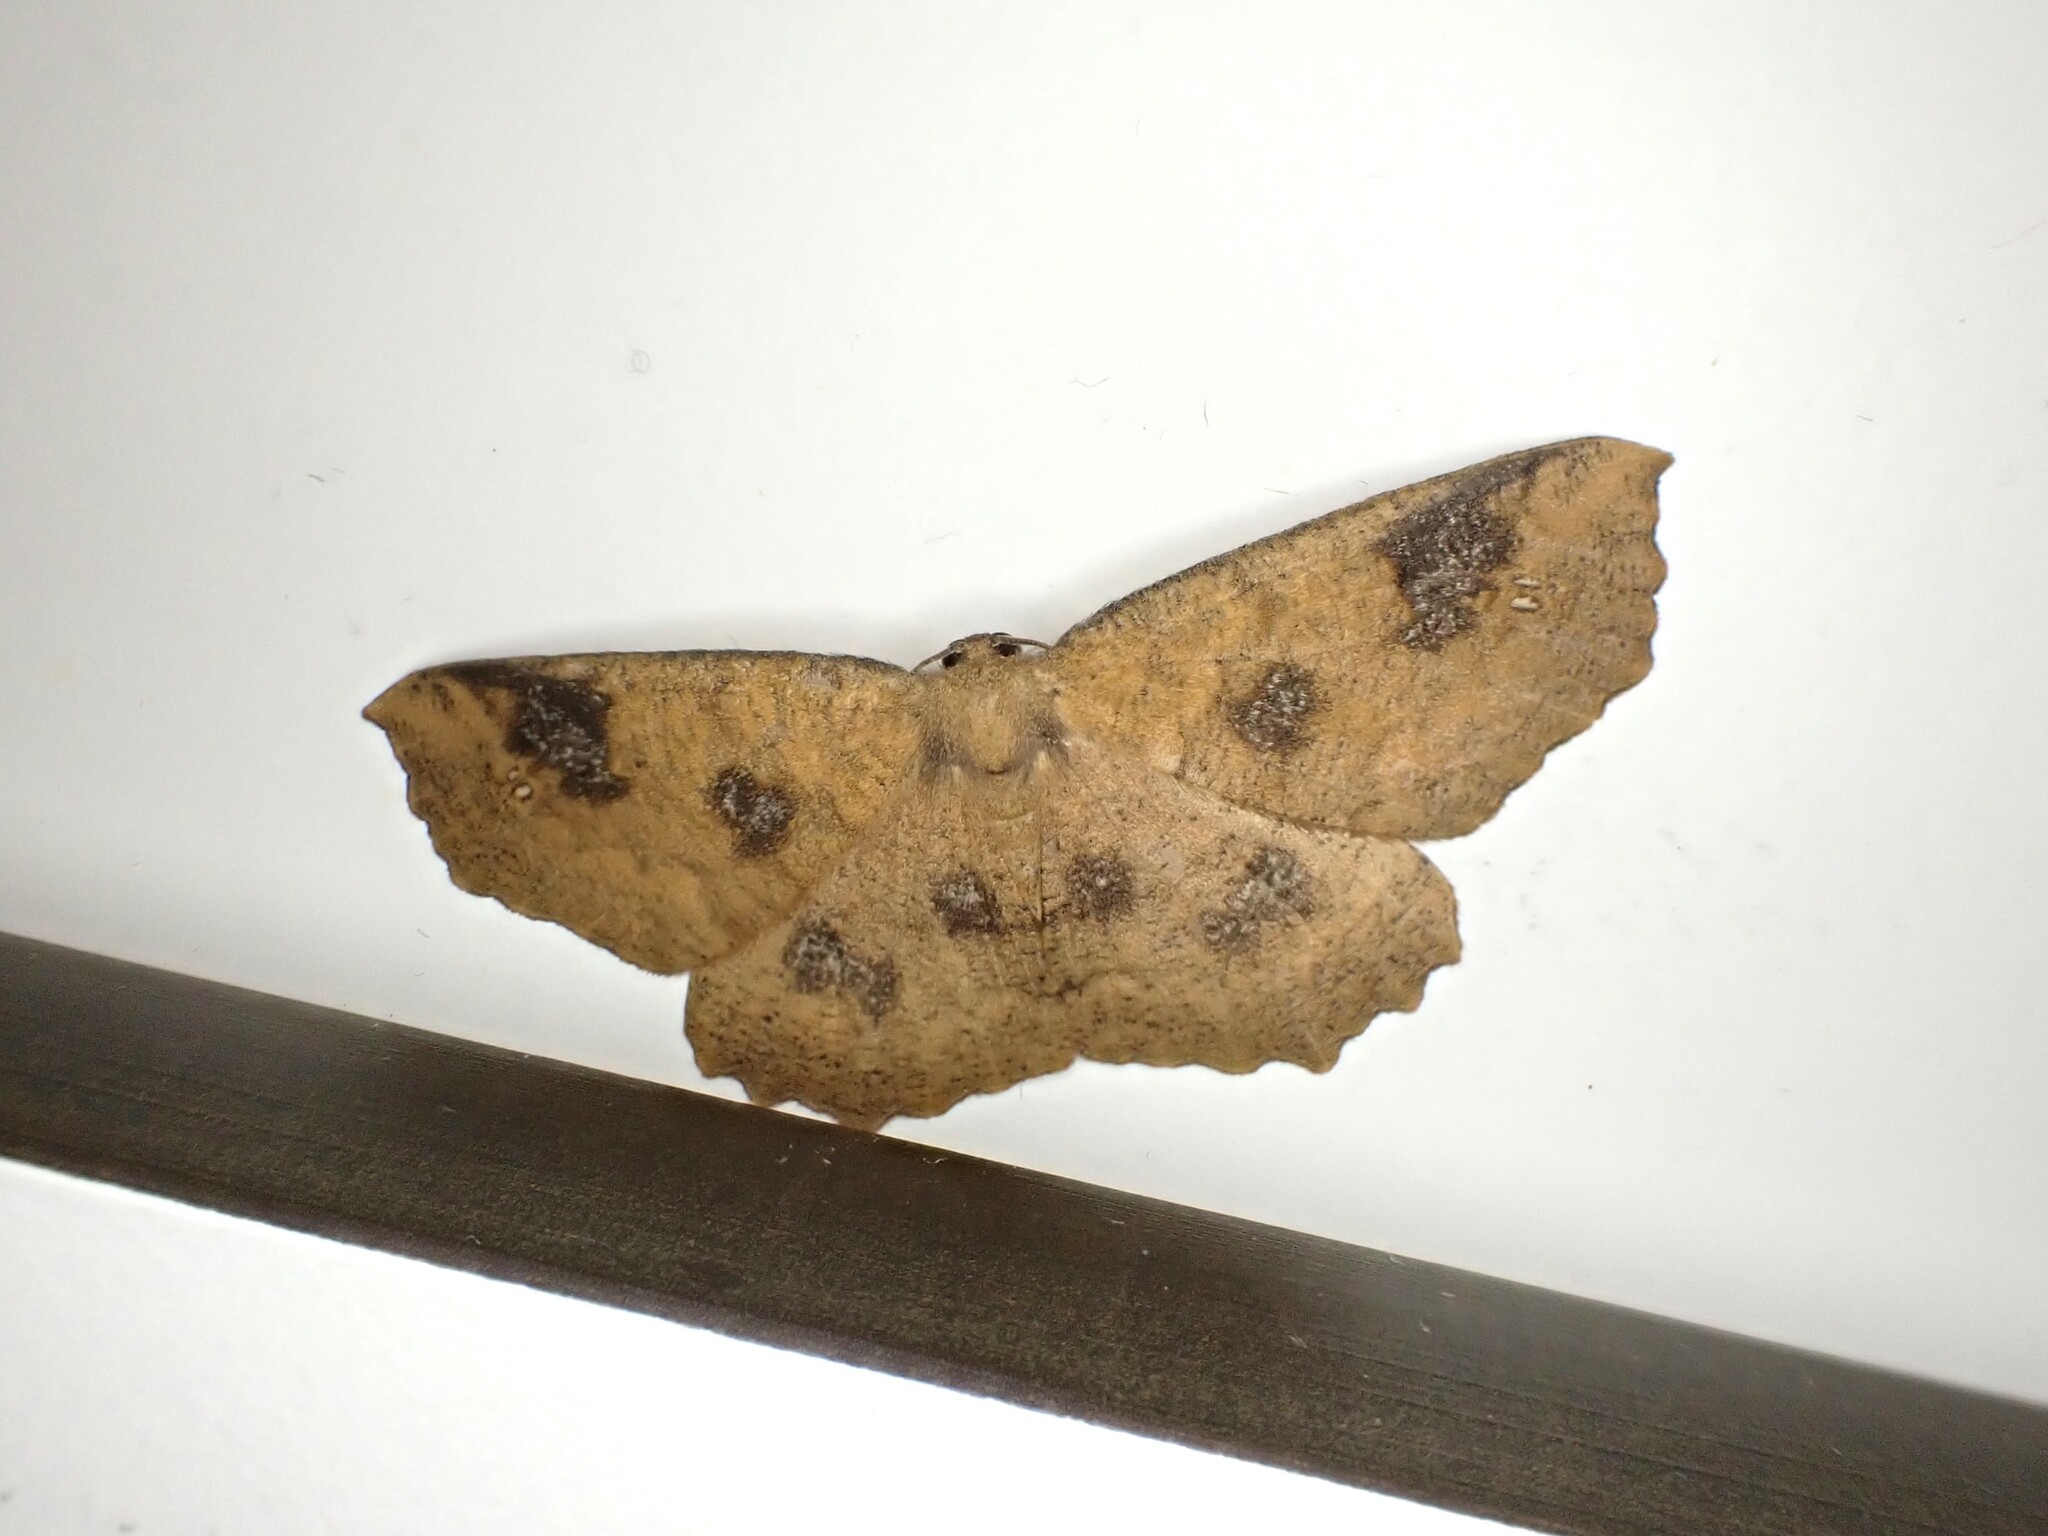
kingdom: Animalia
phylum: Arthropoda
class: Insecta
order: Lepidoptera
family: Geometridae
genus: Xyridacma
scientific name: Xyridacma ustaria
